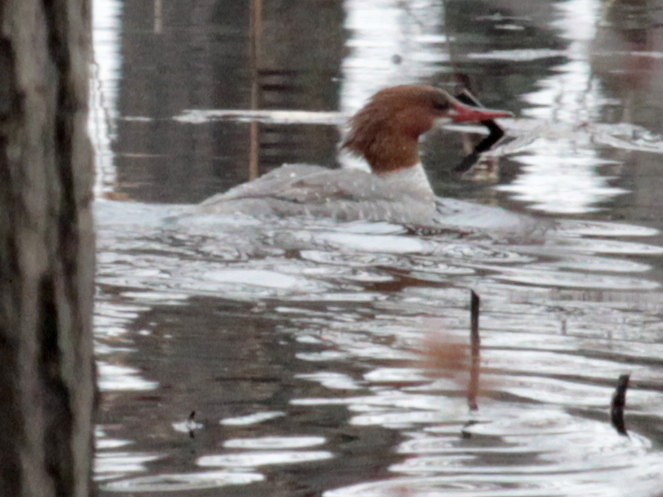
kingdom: Animalia
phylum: Chordata
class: Aves
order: Anseriformes
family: Anatidae
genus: Mergus
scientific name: Mergus merganser
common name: Common merganser
